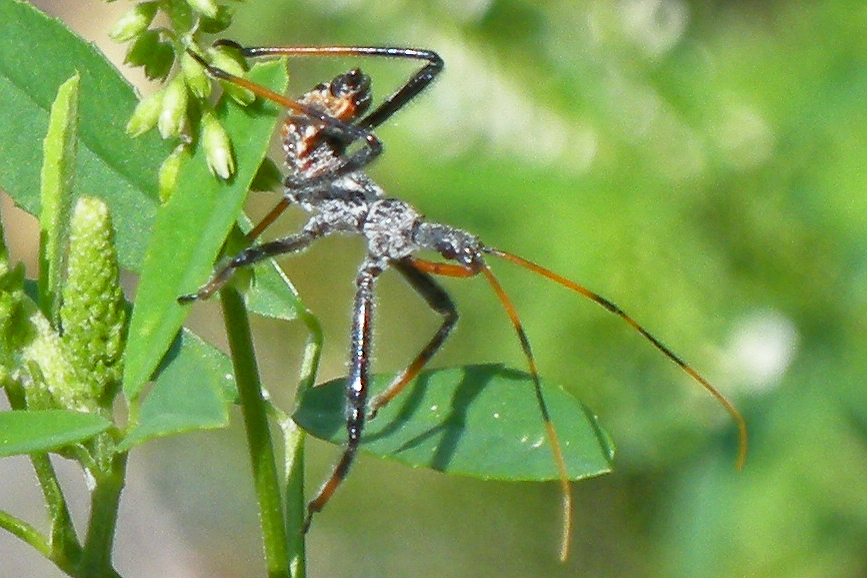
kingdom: Animalia
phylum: Arthropoda
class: Insecta
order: Hemiptera
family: Reduviidae
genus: Arilus
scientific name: Arilus cristatus
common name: North american wheel bug
